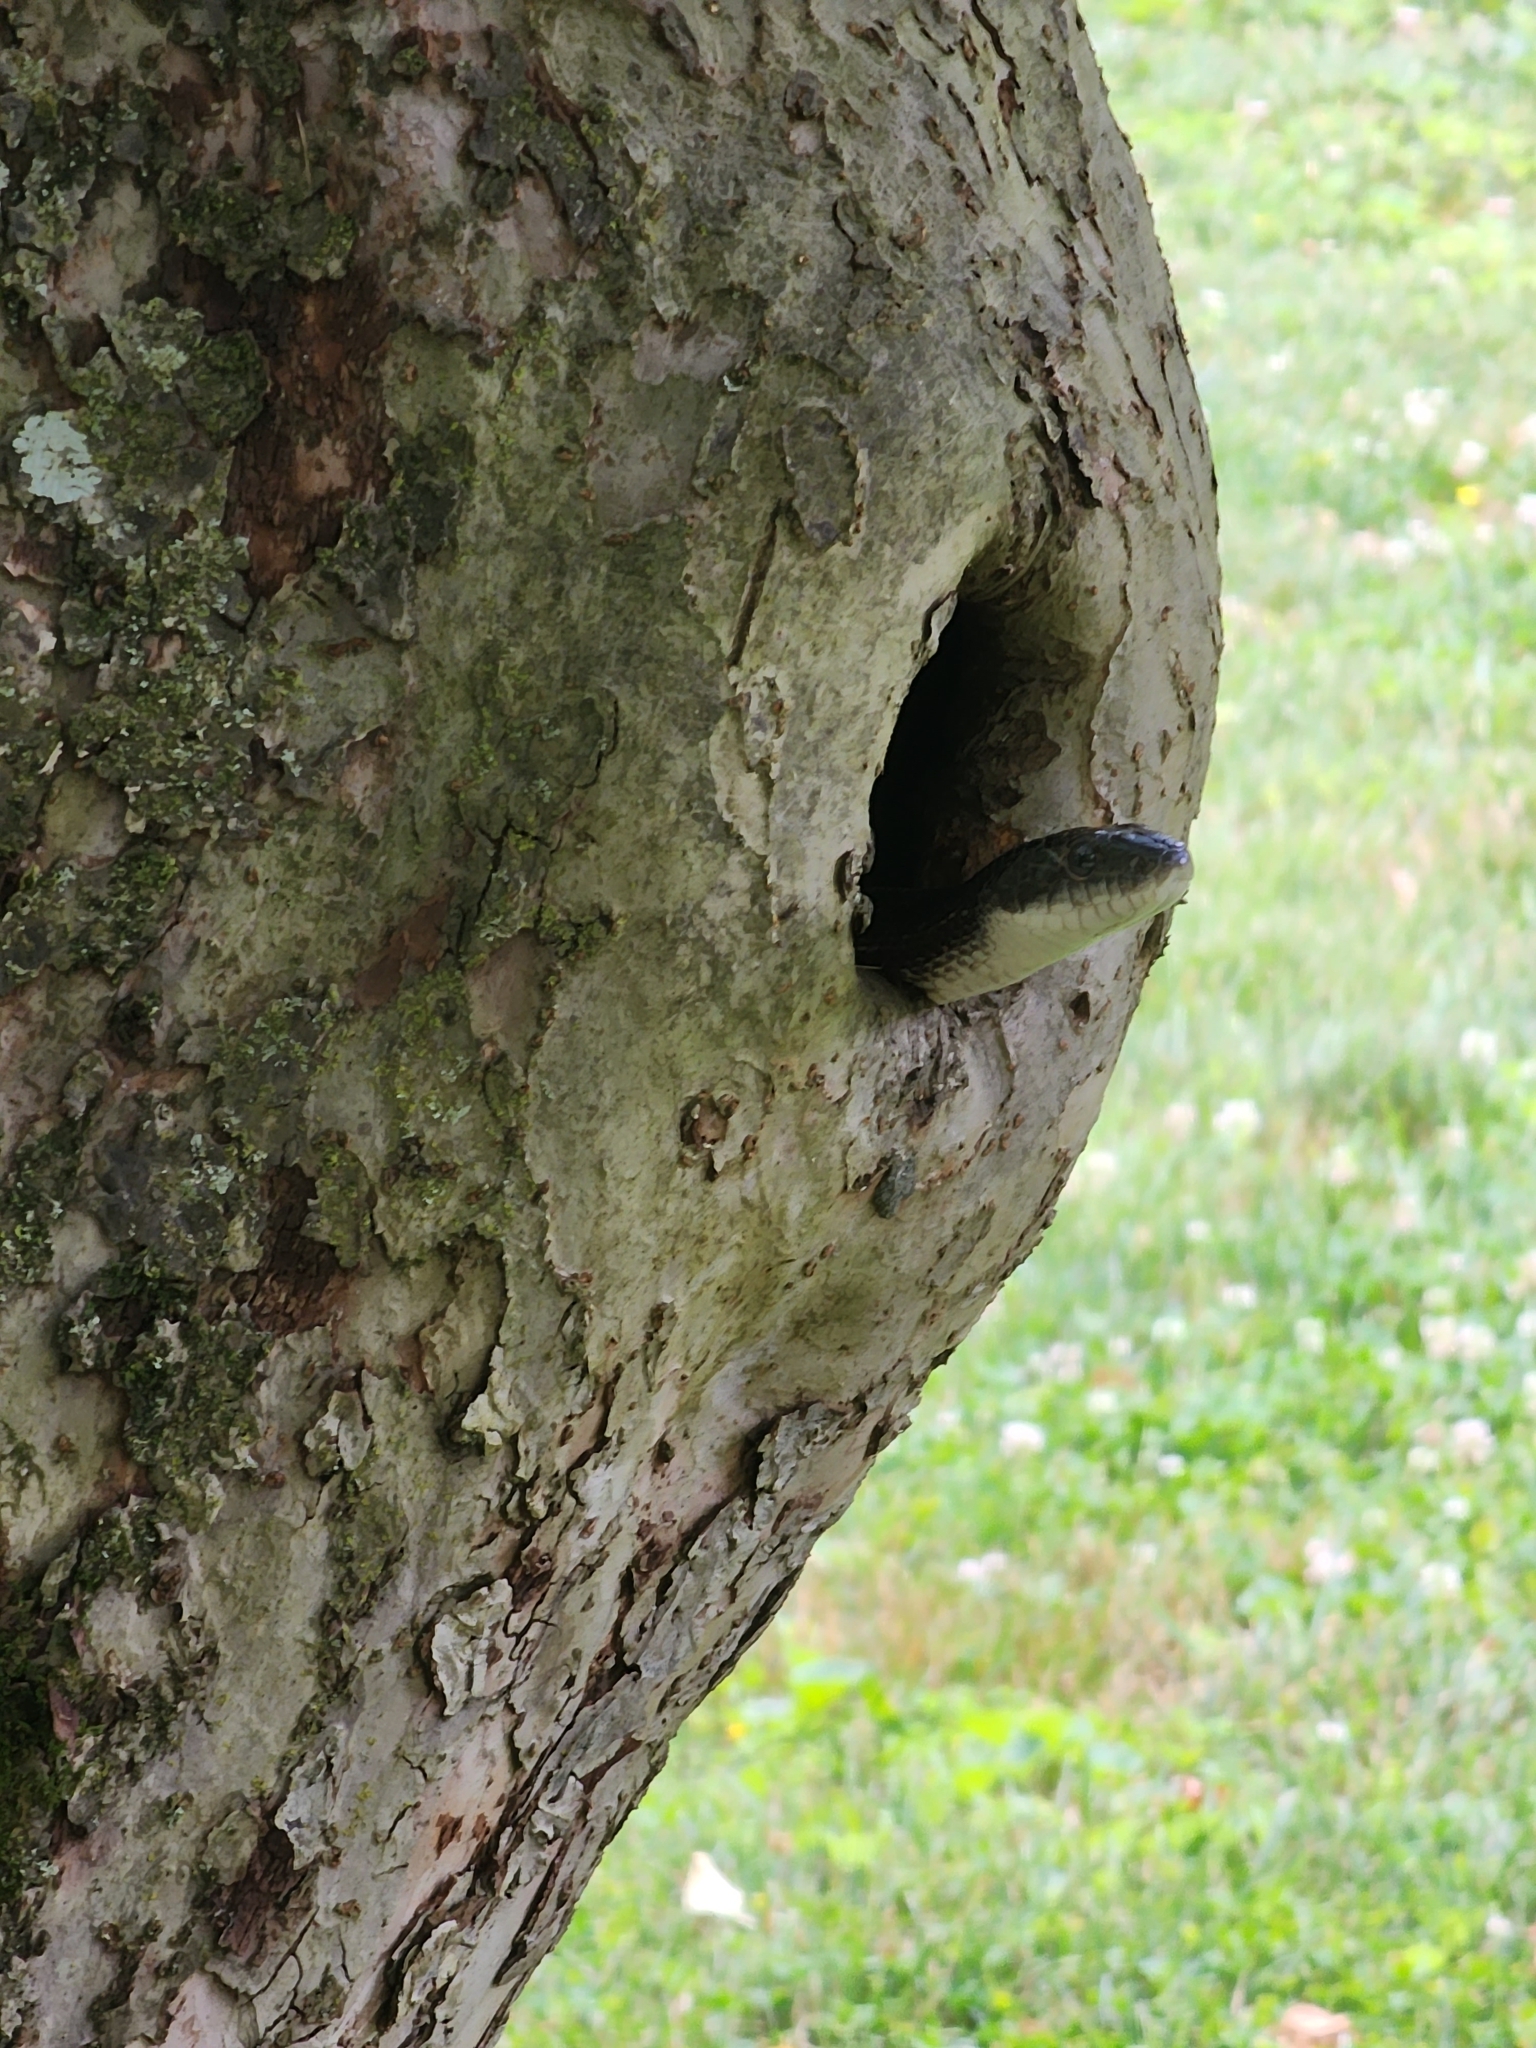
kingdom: Animalia
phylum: Chordata
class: Squamata
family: Colubridae
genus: Pantherophis
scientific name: Pantherophis spiloides
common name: Gray rat snake
